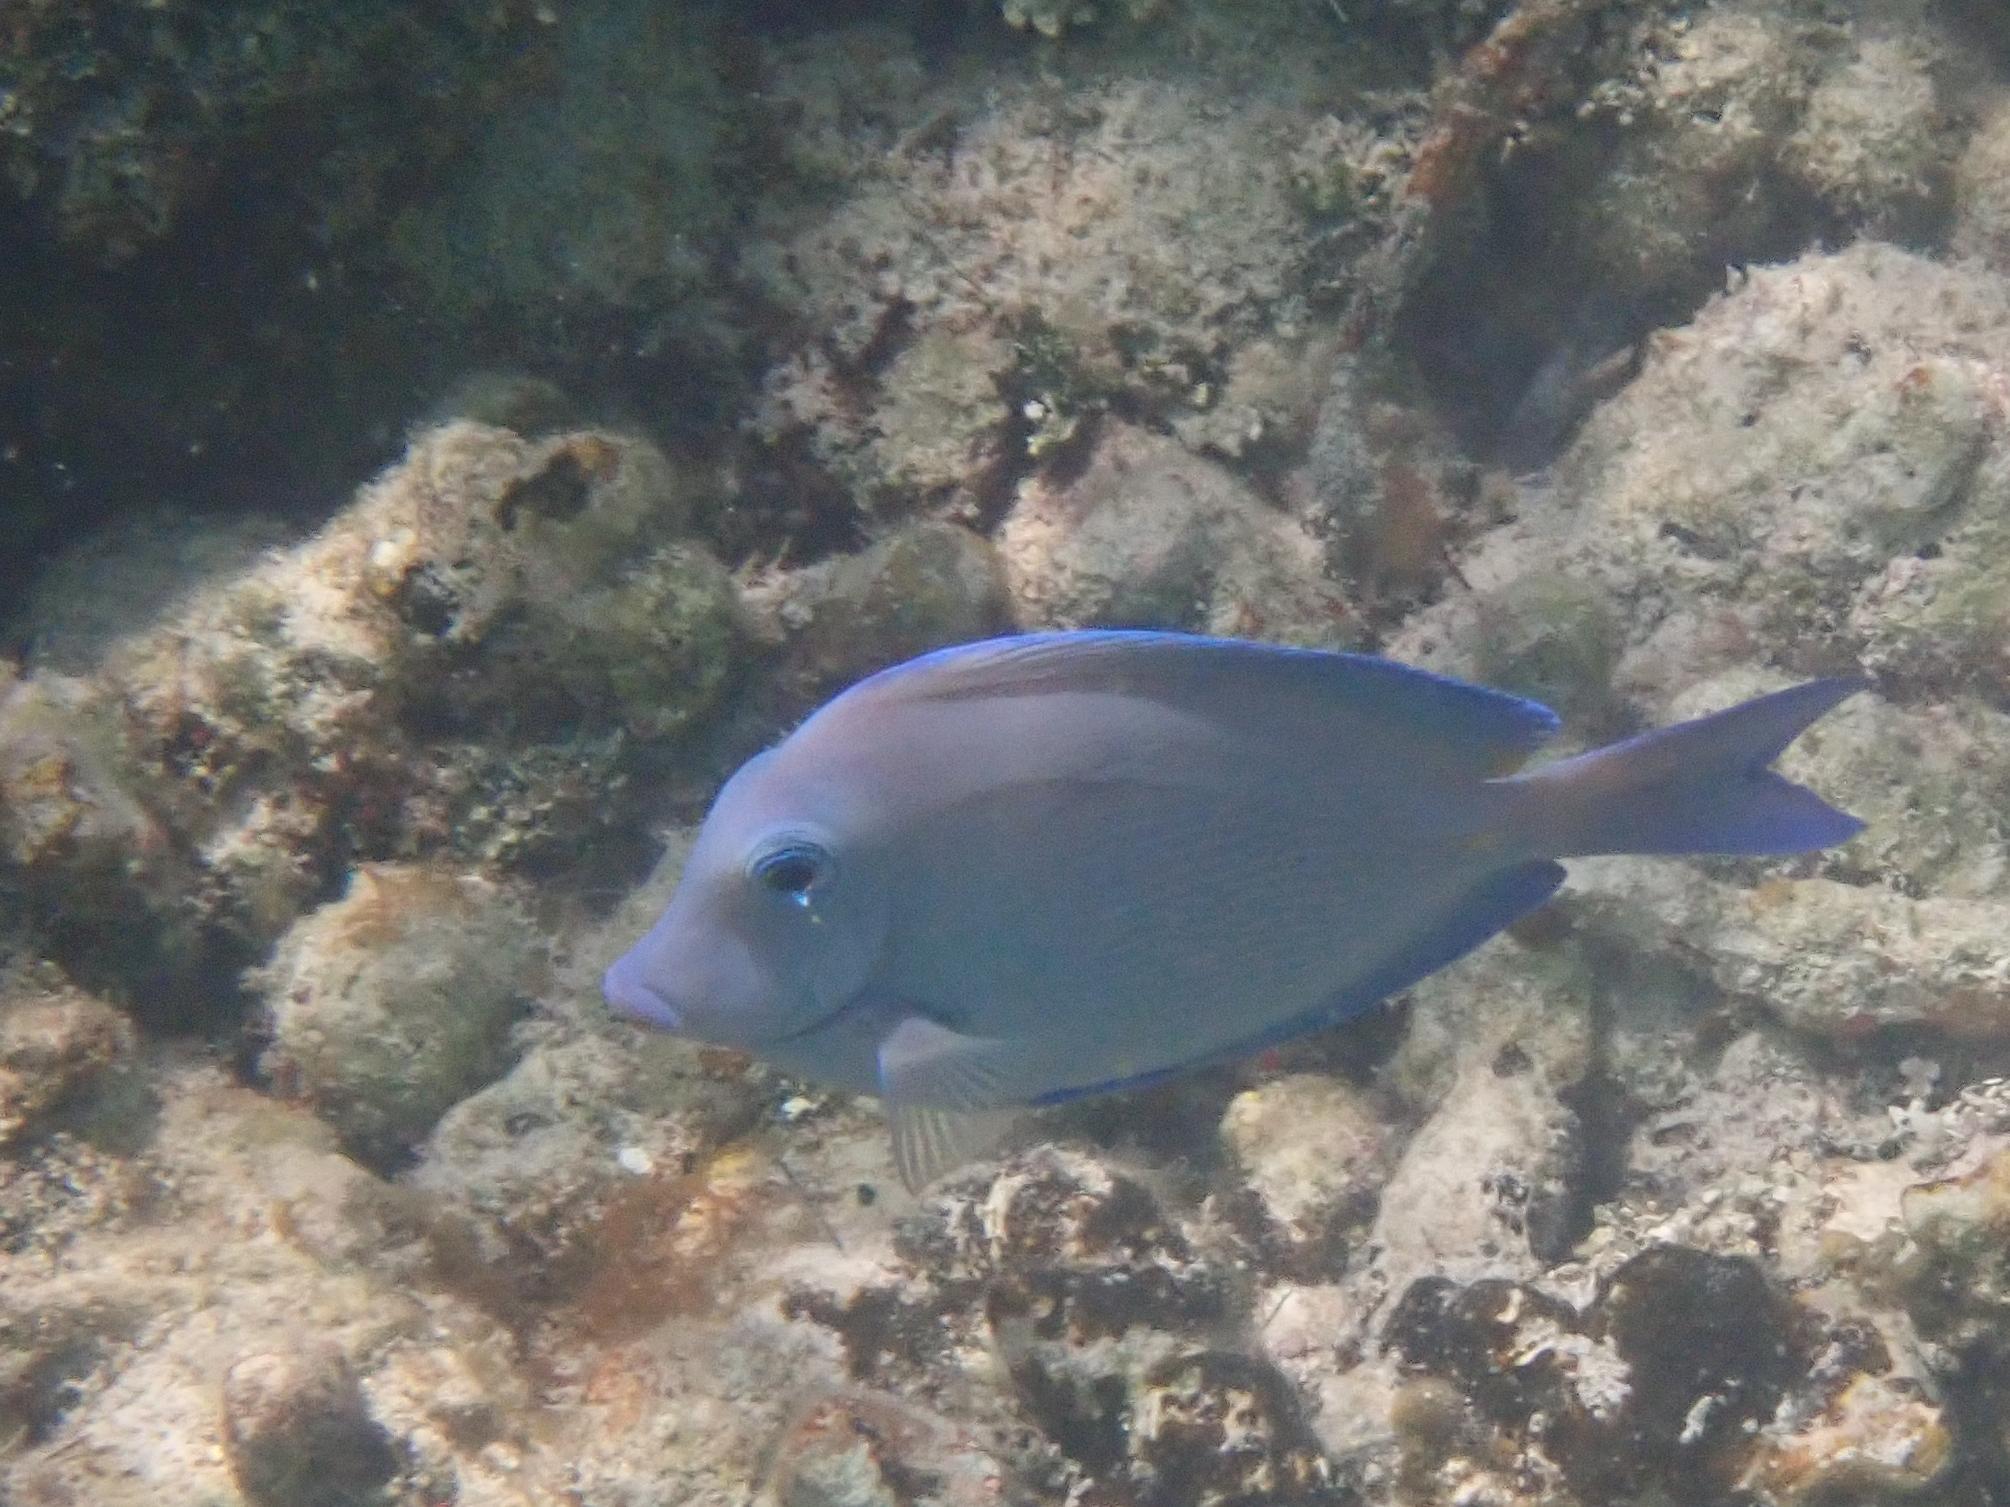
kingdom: Animalia
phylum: Chordata
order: Perciformes
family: Acanthuridae
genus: Acanthurus
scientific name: Acanthurus coeruleus
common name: Blue tang
